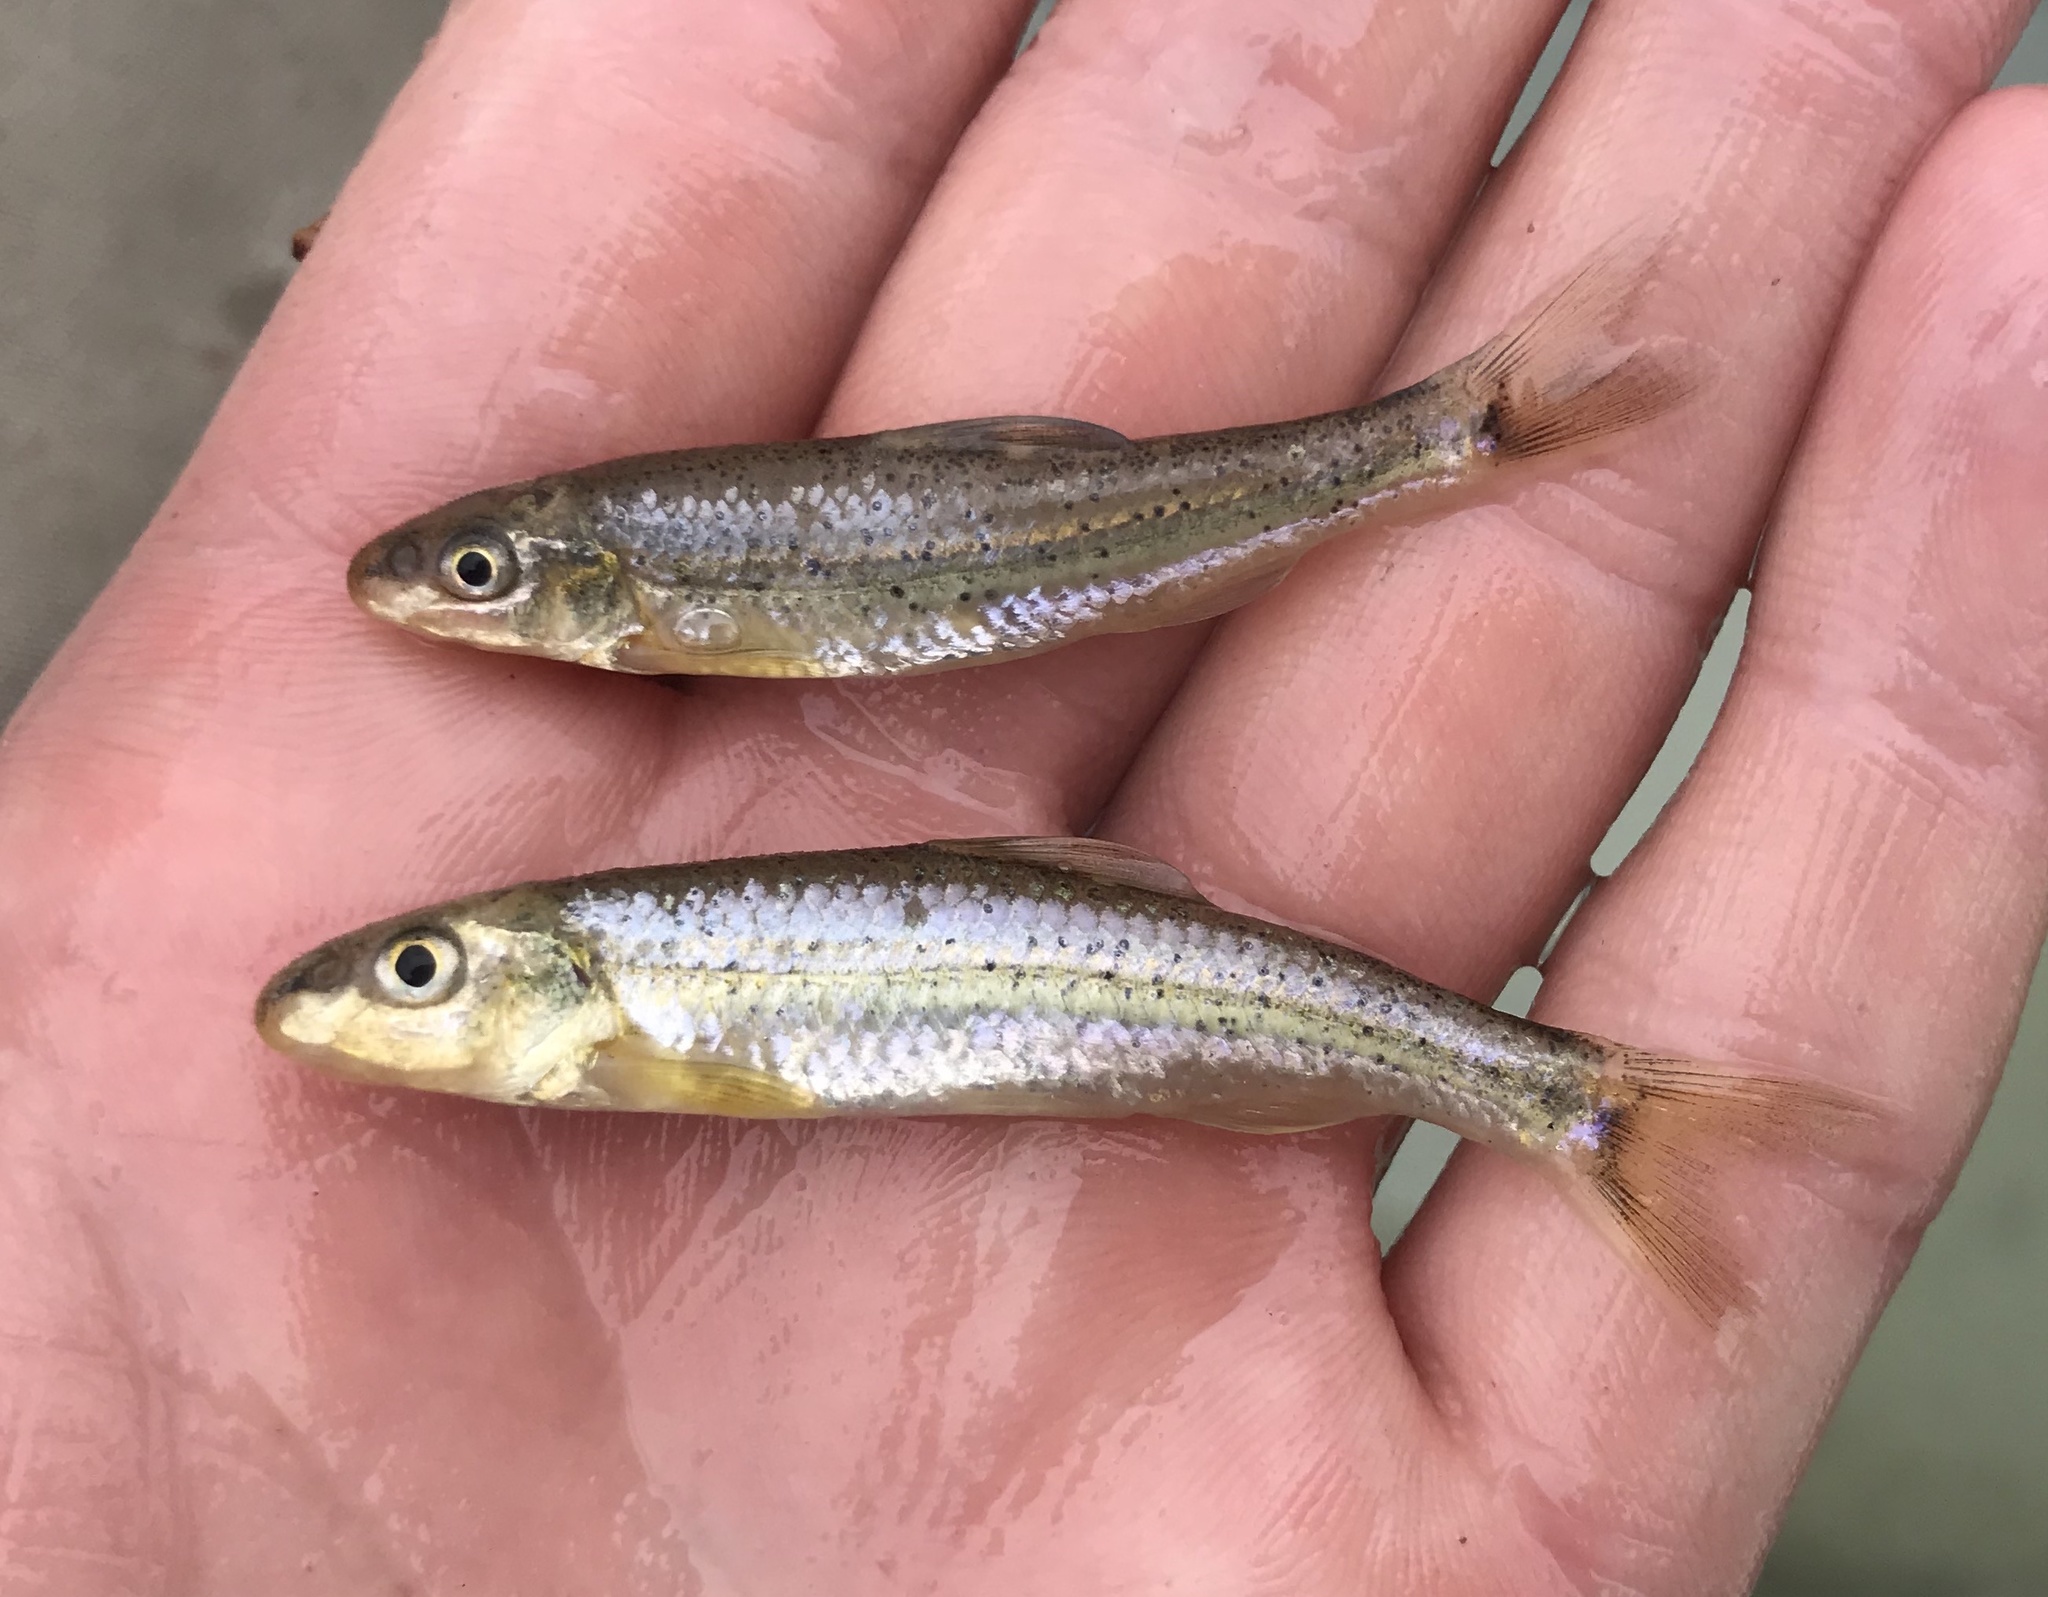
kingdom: Animalia
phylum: Chordata
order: Cypriniformes
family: Cyprinidae
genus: Macrhybopsis
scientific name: Macrhybopsis marconis
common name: Burrhead chub
